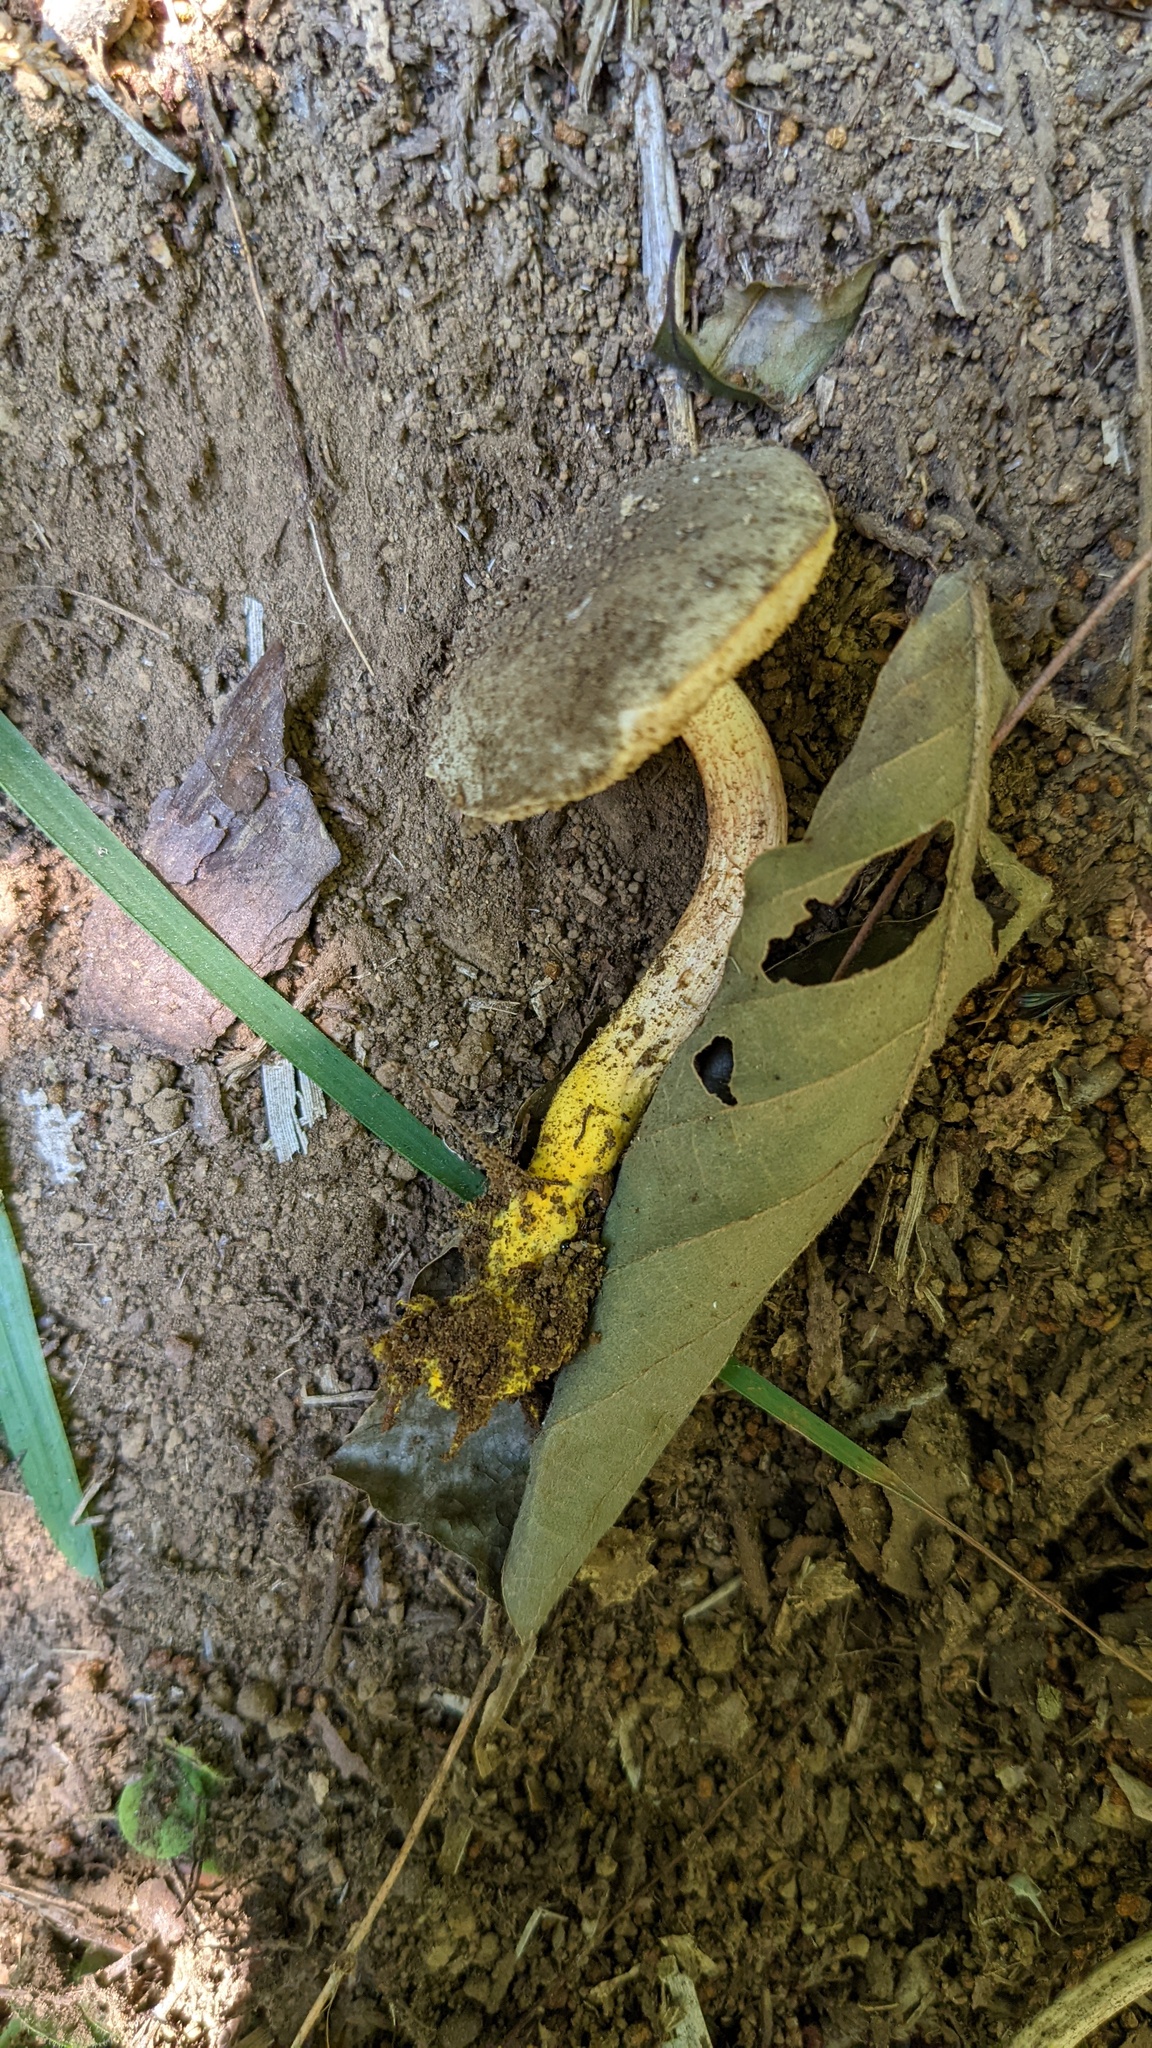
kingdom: Fungi
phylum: Basidiomycota
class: Agaricomycetes
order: Boletales
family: Boletaceae
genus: Chiua
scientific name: Chiua virens
